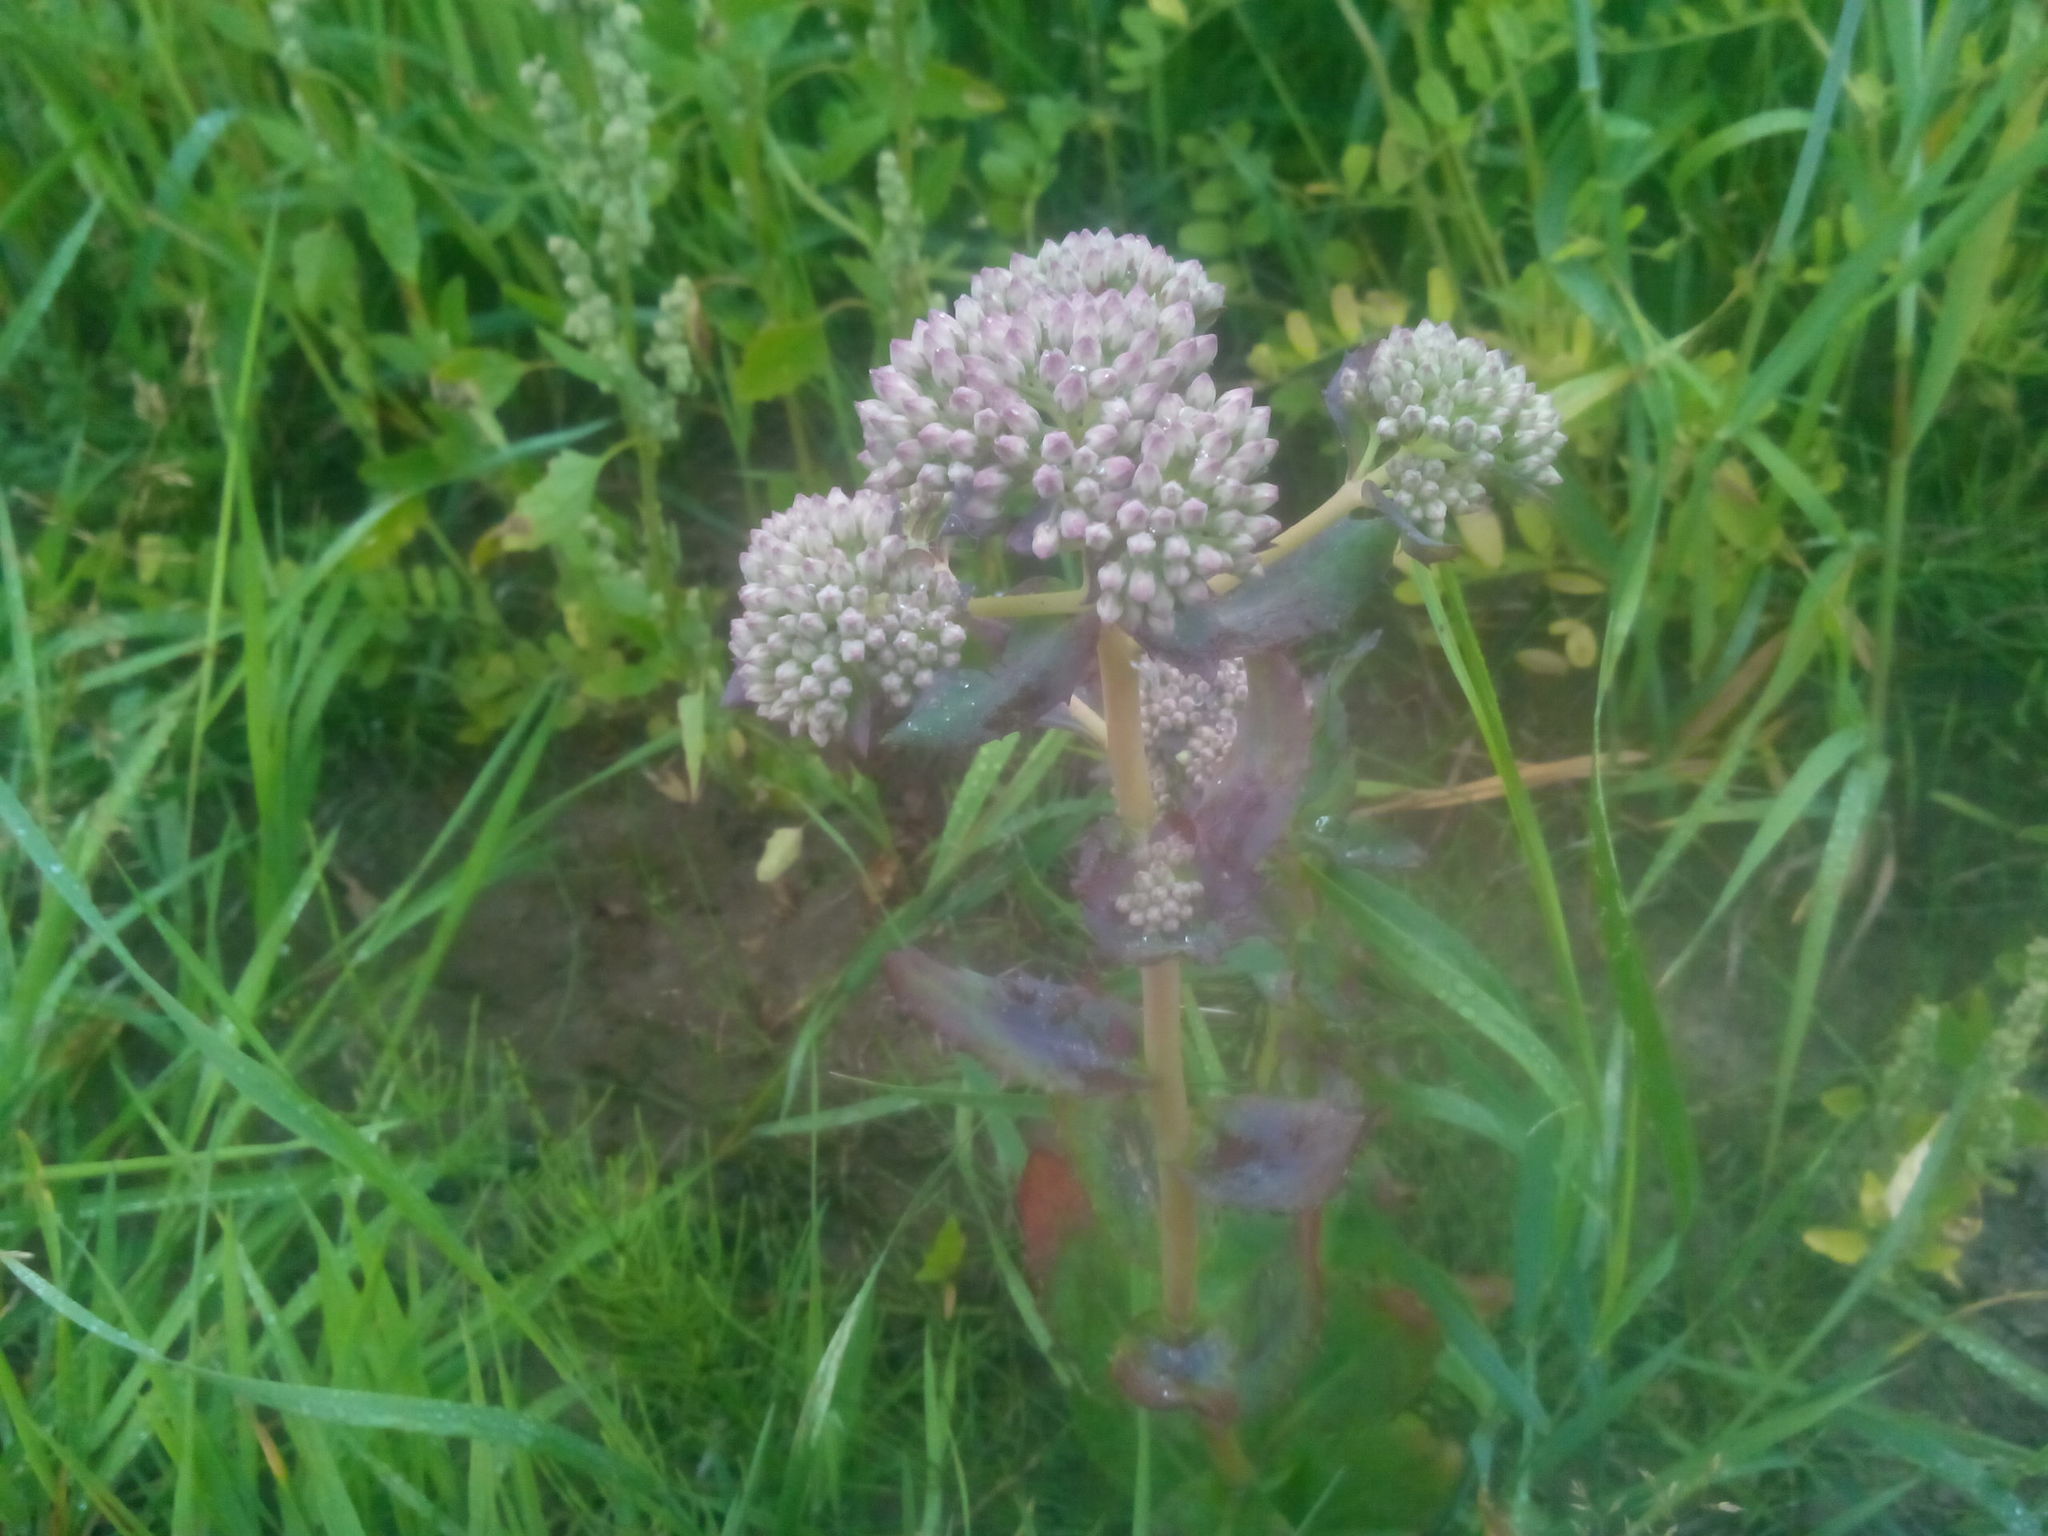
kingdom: Plantae
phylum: Tracheophyta
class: Magnoliopsida
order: Saxifragales
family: Crassulaceae
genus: Hylotelephium
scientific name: Hylotelephium telephium
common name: Live-forever
